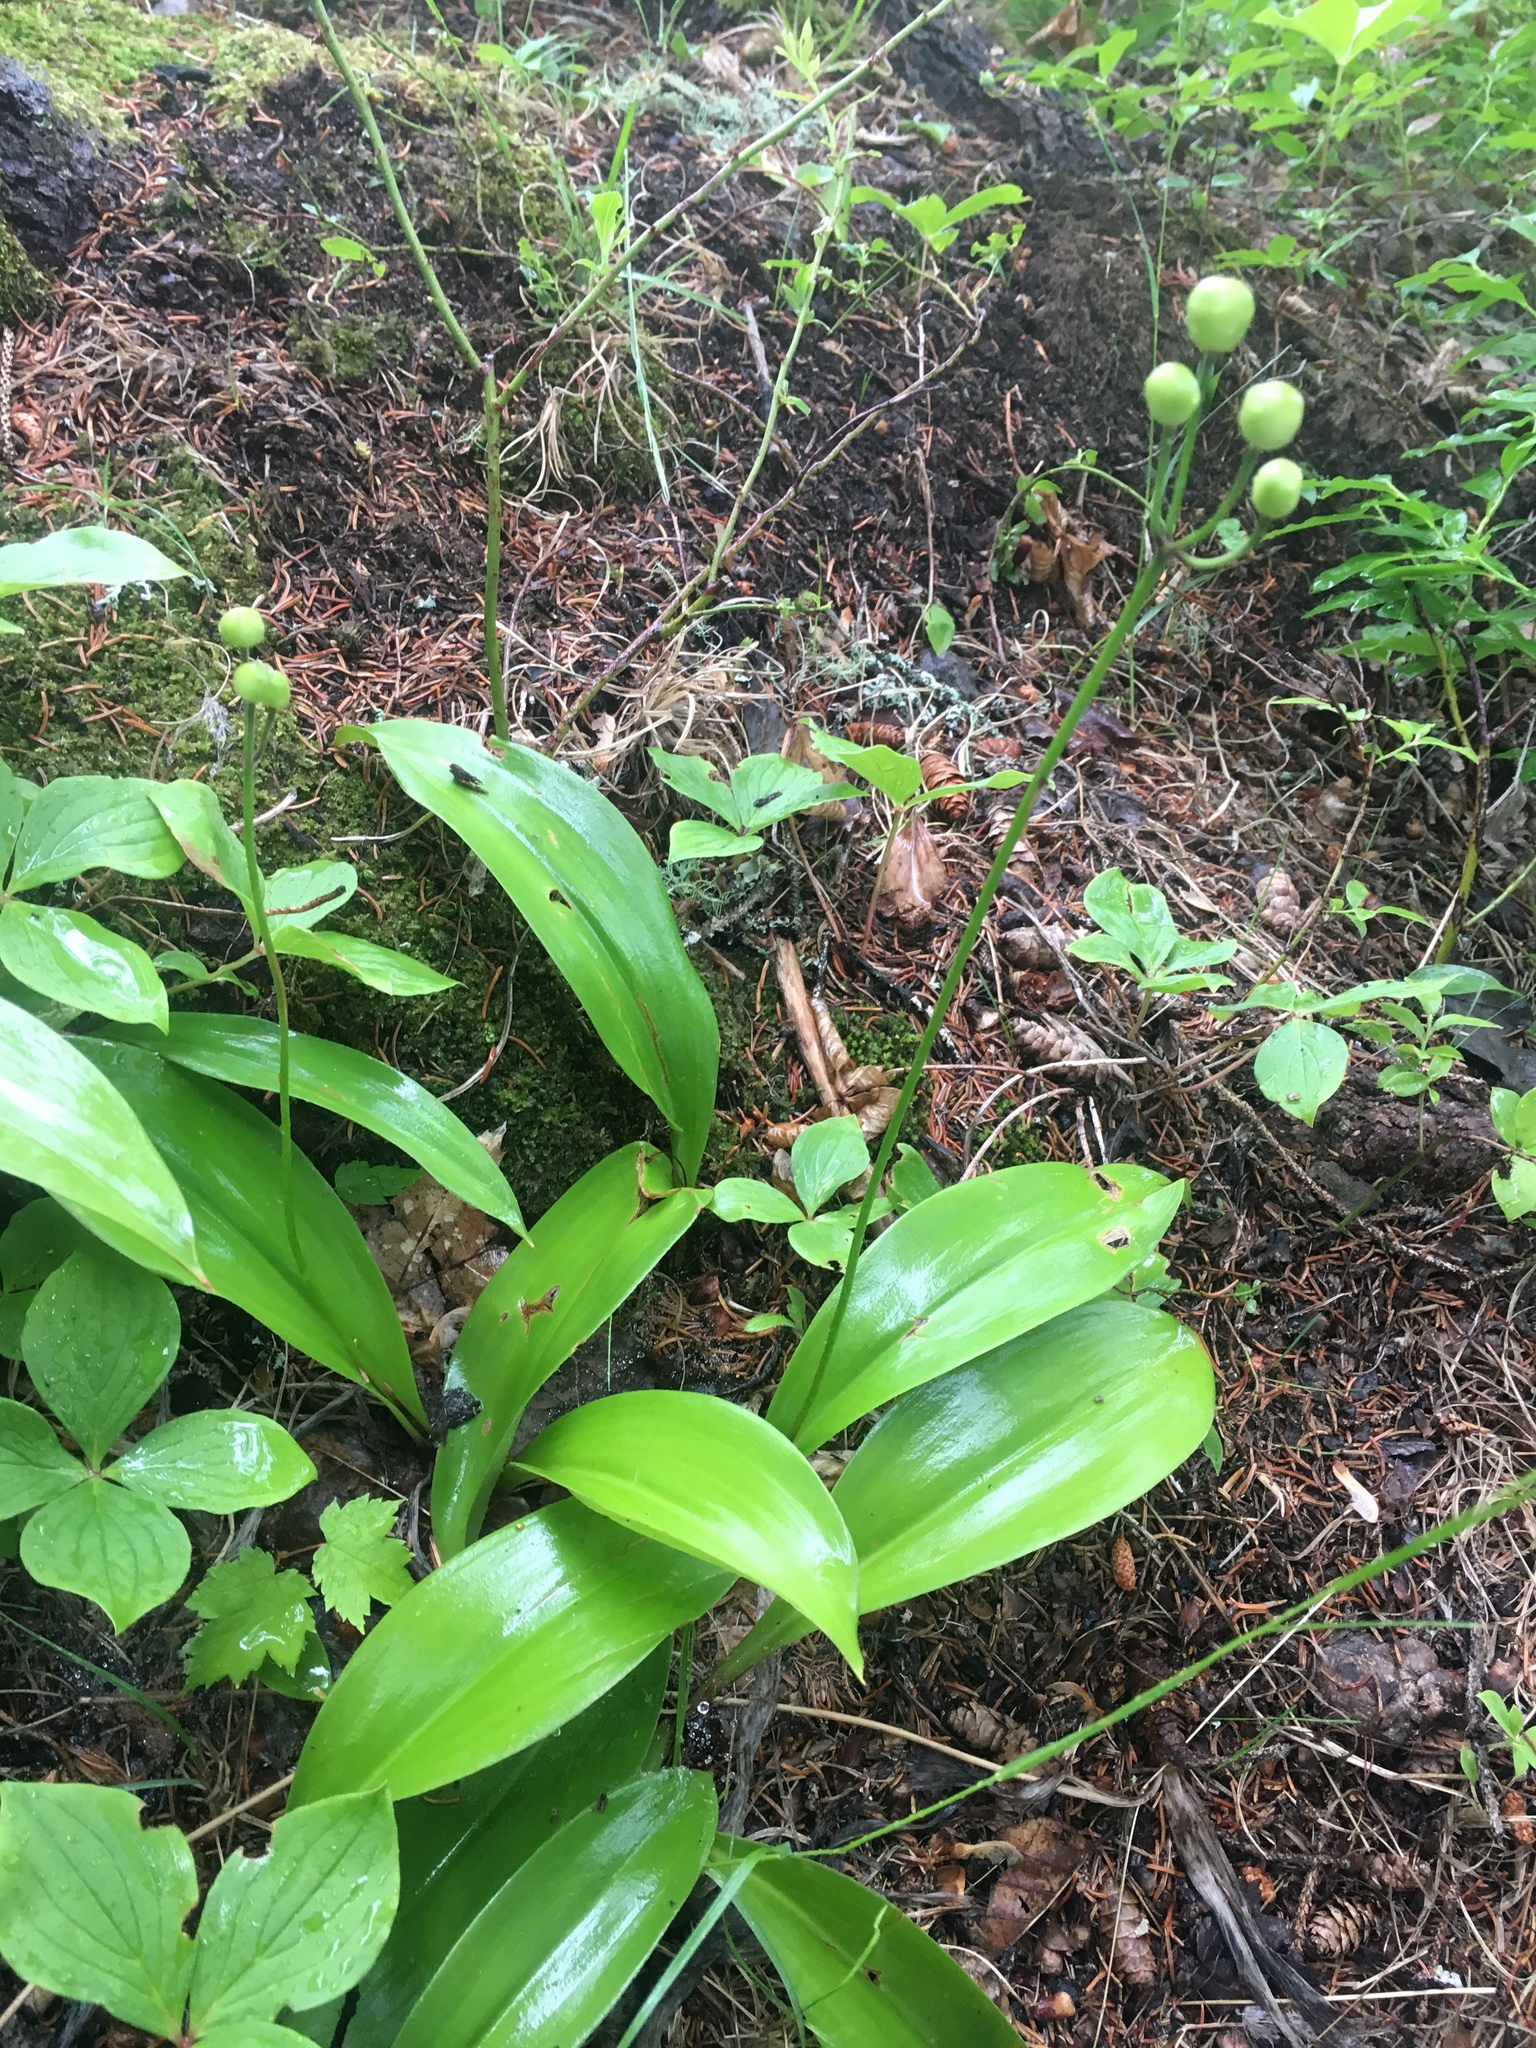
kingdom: Plantae
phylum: Tracheophyta
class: Liliopsida
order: Liliales
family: Liliaceae
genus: Clintonia
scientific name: Clintonia borealis
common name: Yellow clintonia
